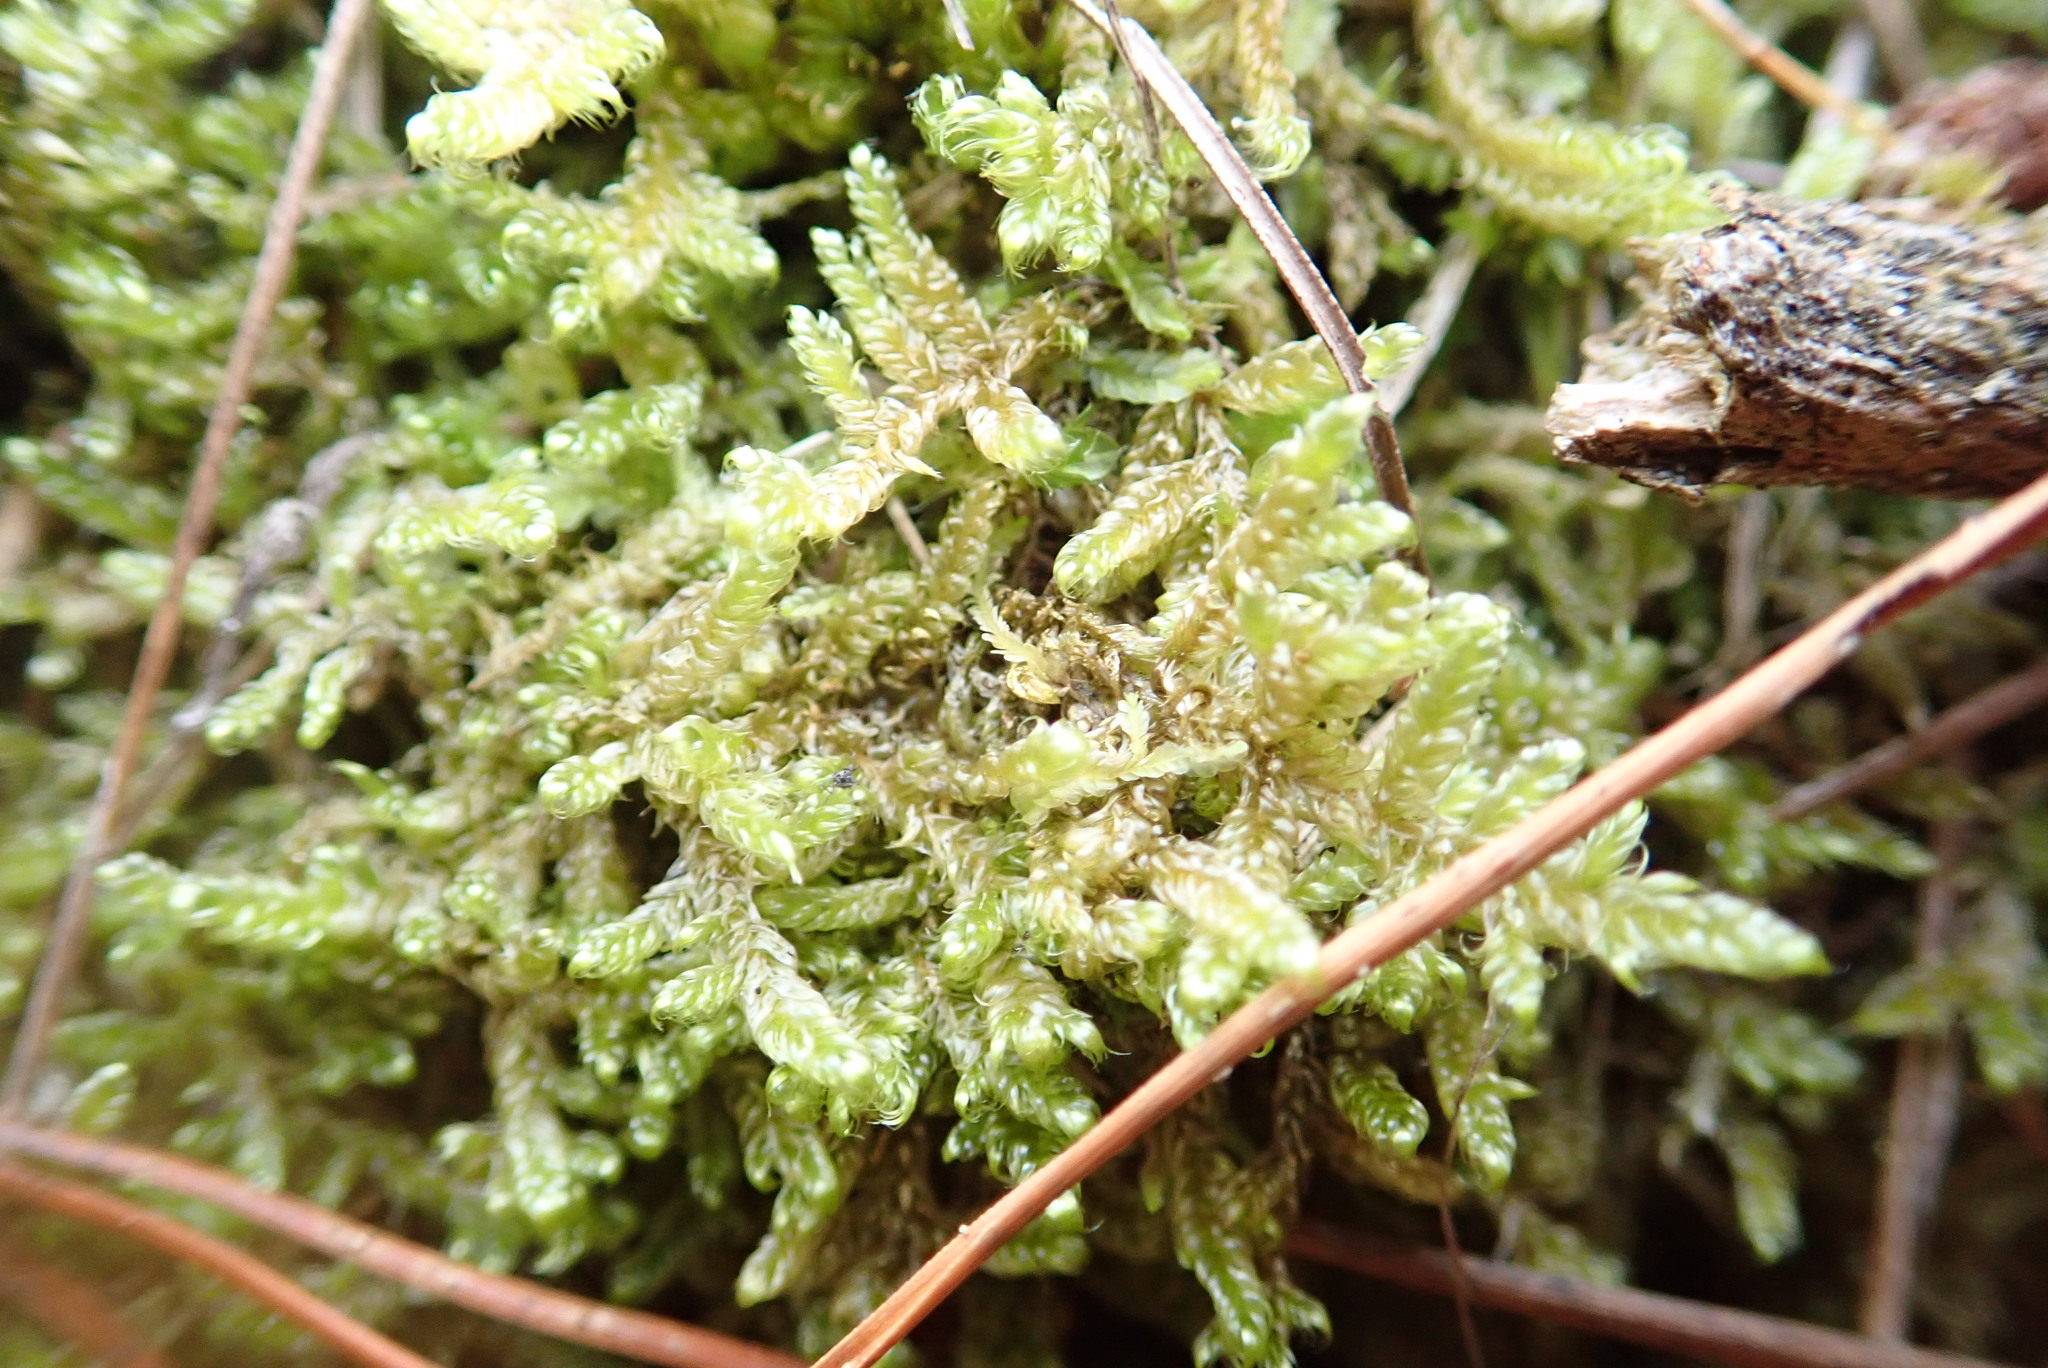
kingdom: Plantae
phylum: Bryophyta
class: Bryopsida
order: Hypnales
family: Hypnaceae
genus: Hypnum
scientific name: Hypnum cupressiforme
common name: Cypress-leaved plait-moss
